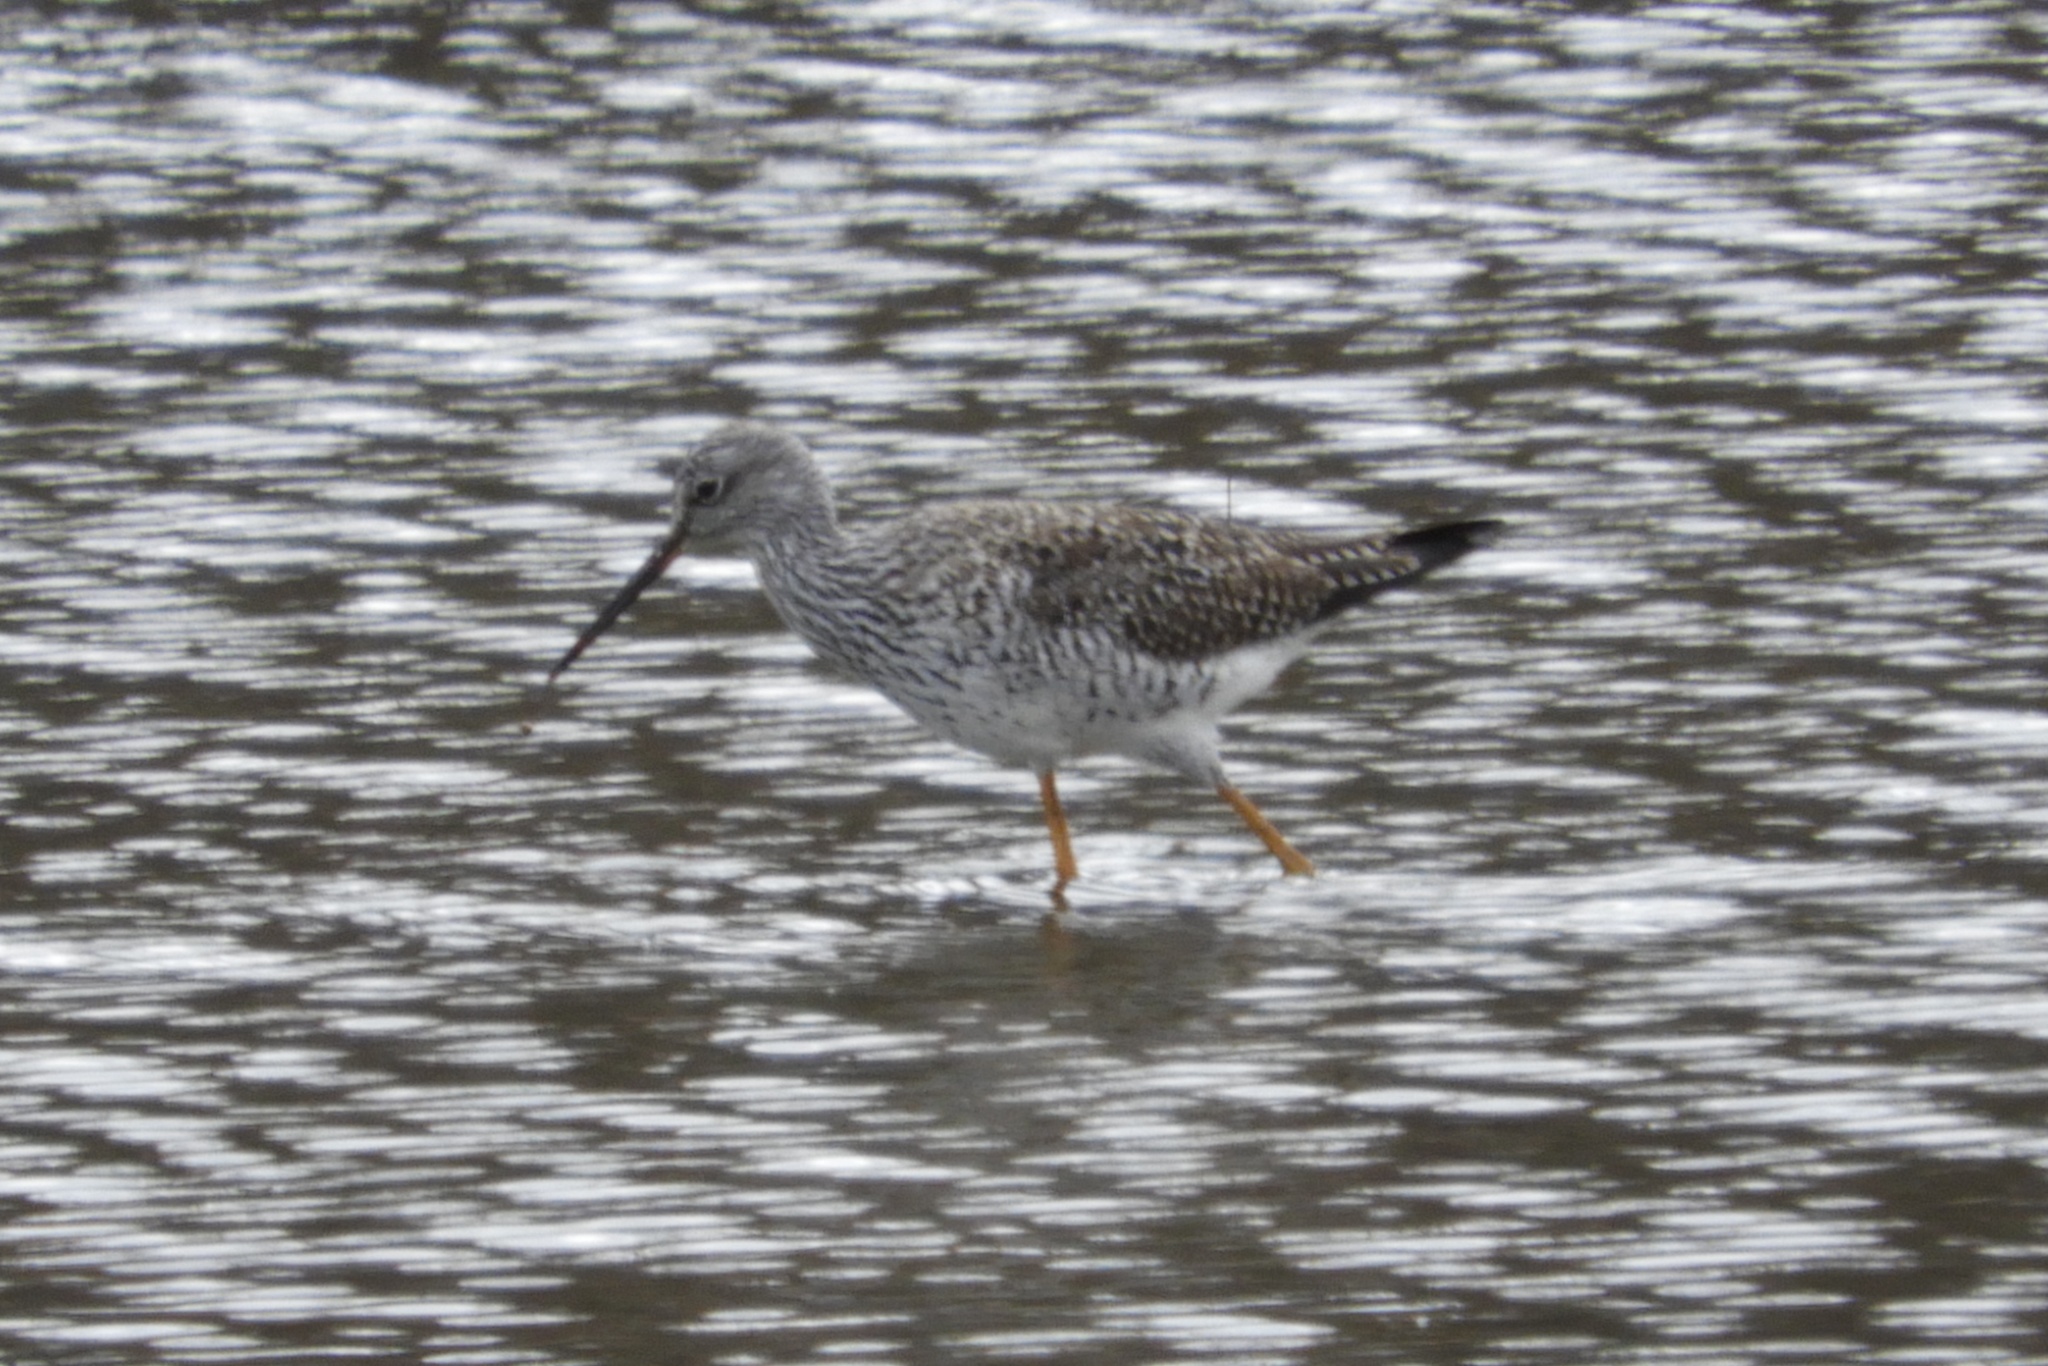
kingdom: Animalia
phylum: Chordata
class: Aves
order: Charadriiformes
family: Scolopacidae
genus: Tringa
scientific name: Tringa melanoleuca
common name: Greater yellowlegs
